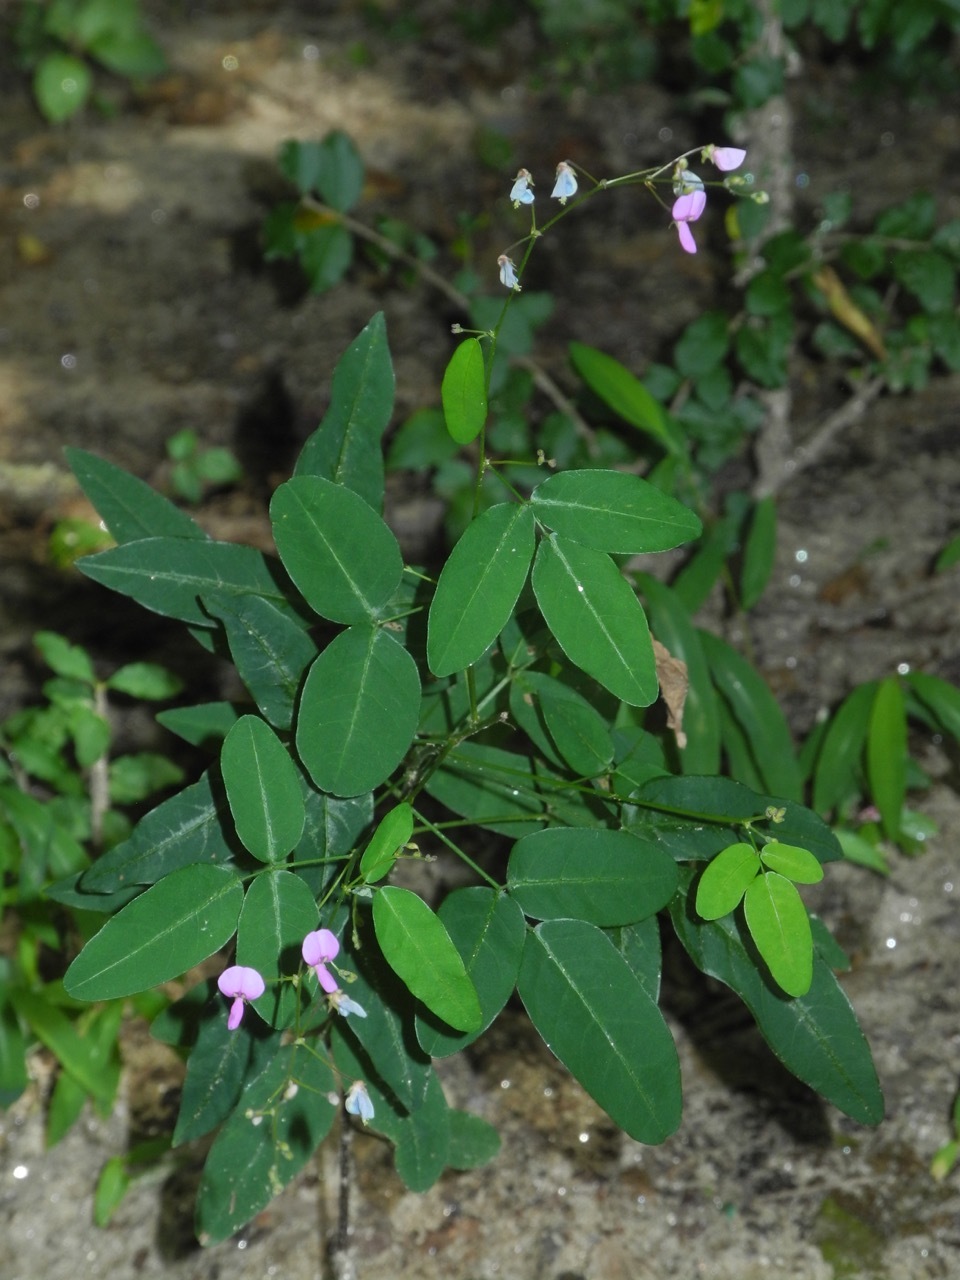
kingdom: Plantae
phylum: Tracheophyta
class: Magnoliopsida
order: Fabales
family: Fabaceae
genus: Desmodium
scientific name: Desmodium paniculatum
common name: Panicled tick-clover
